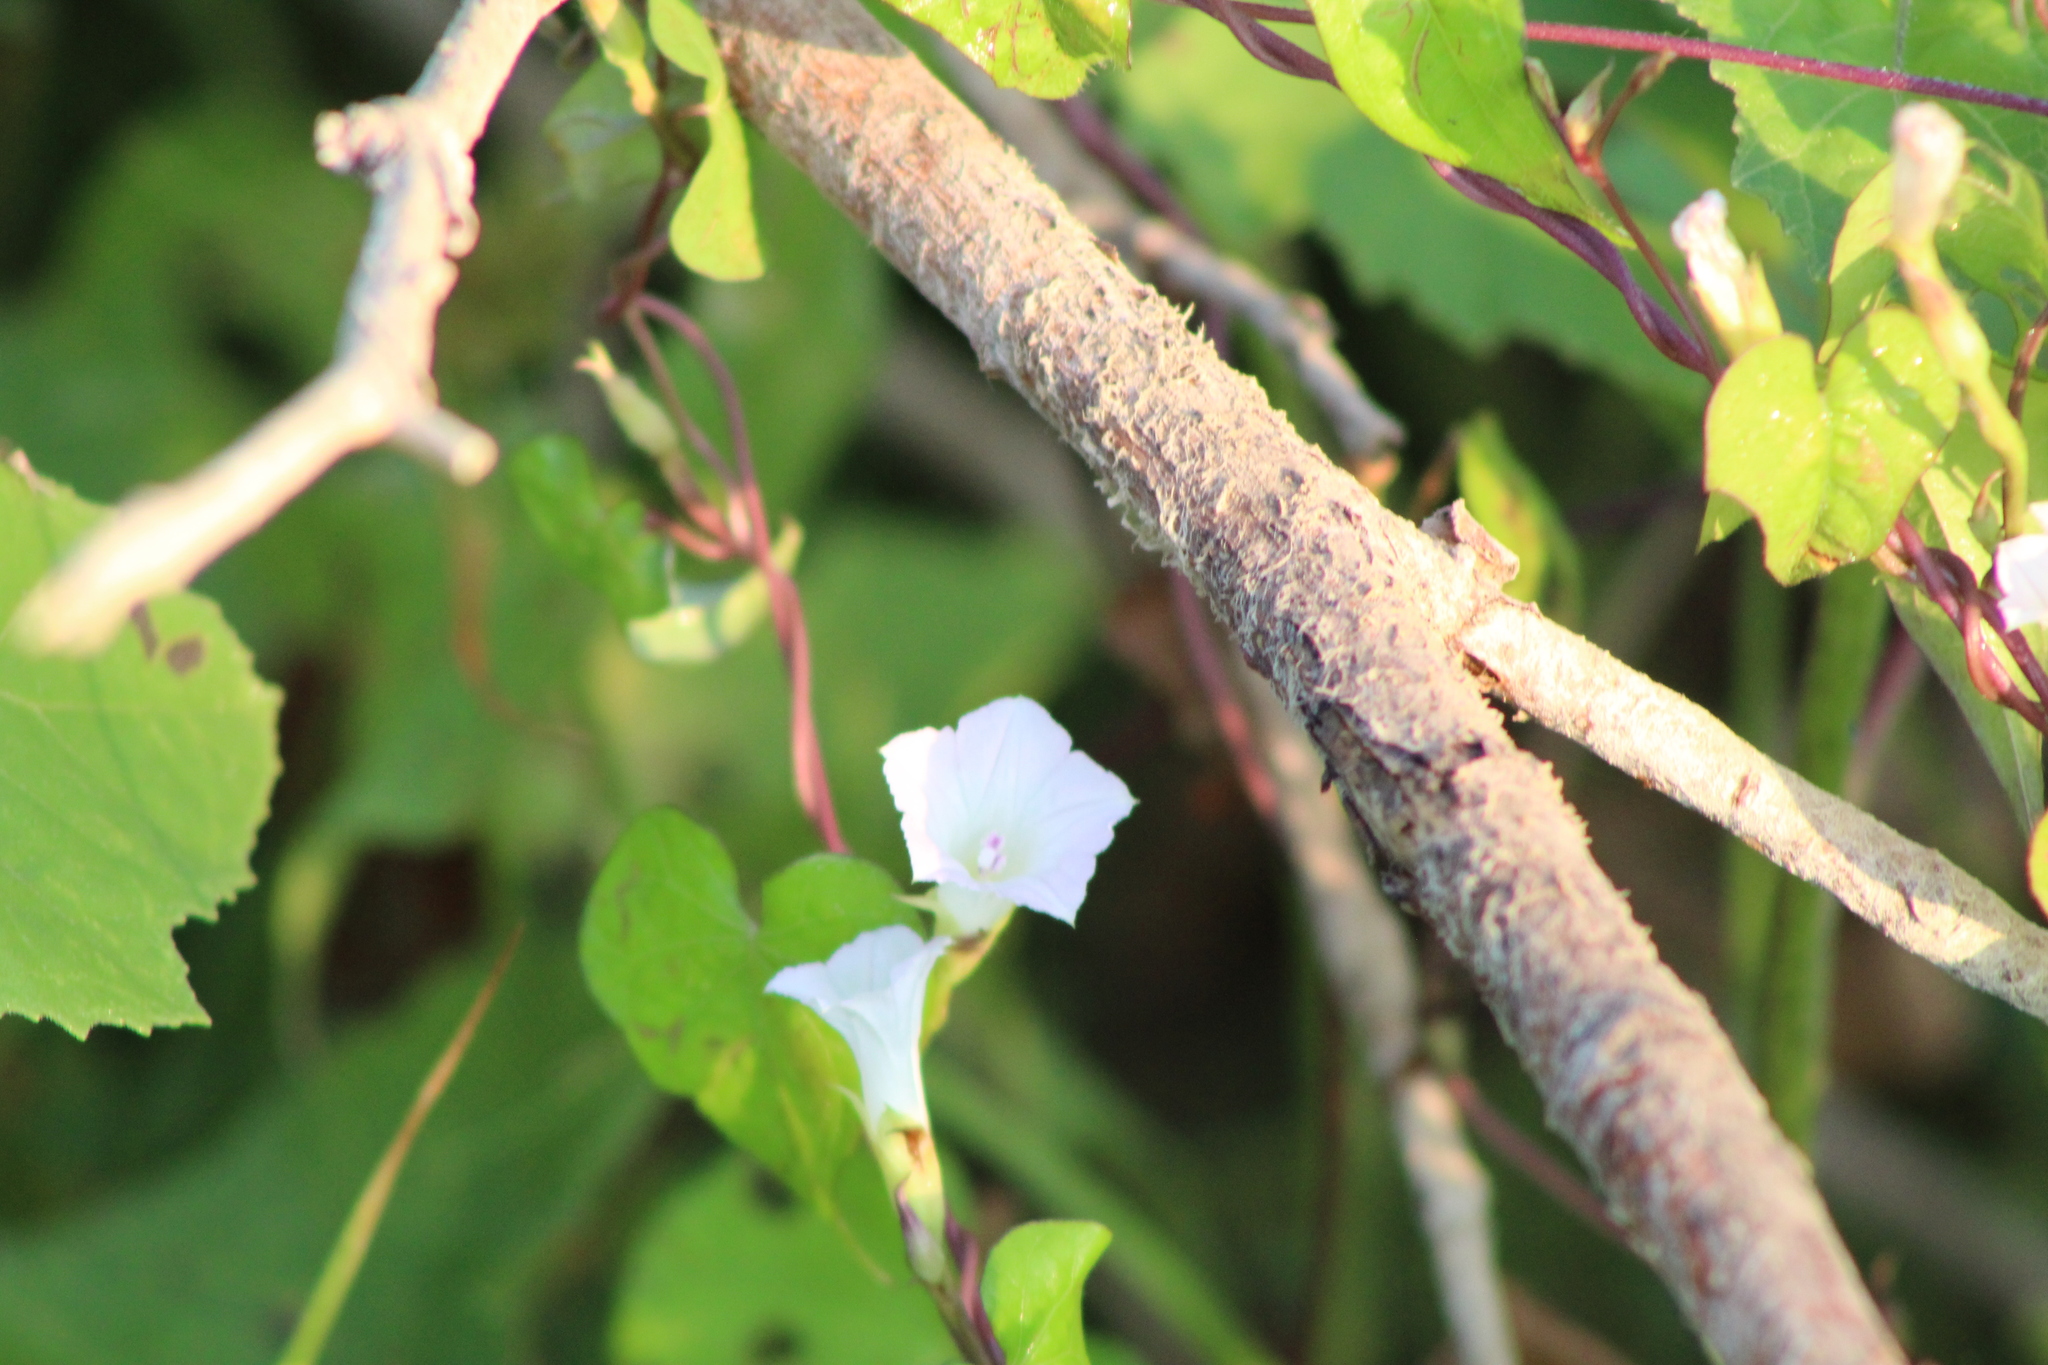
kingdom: Plantae
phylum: Tracheophyta
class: Magnoliopsida
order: Solanales
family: Convolvulaceae
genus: Ipomoea
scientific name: Ipomoea lacunosa
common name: White morning-glory
